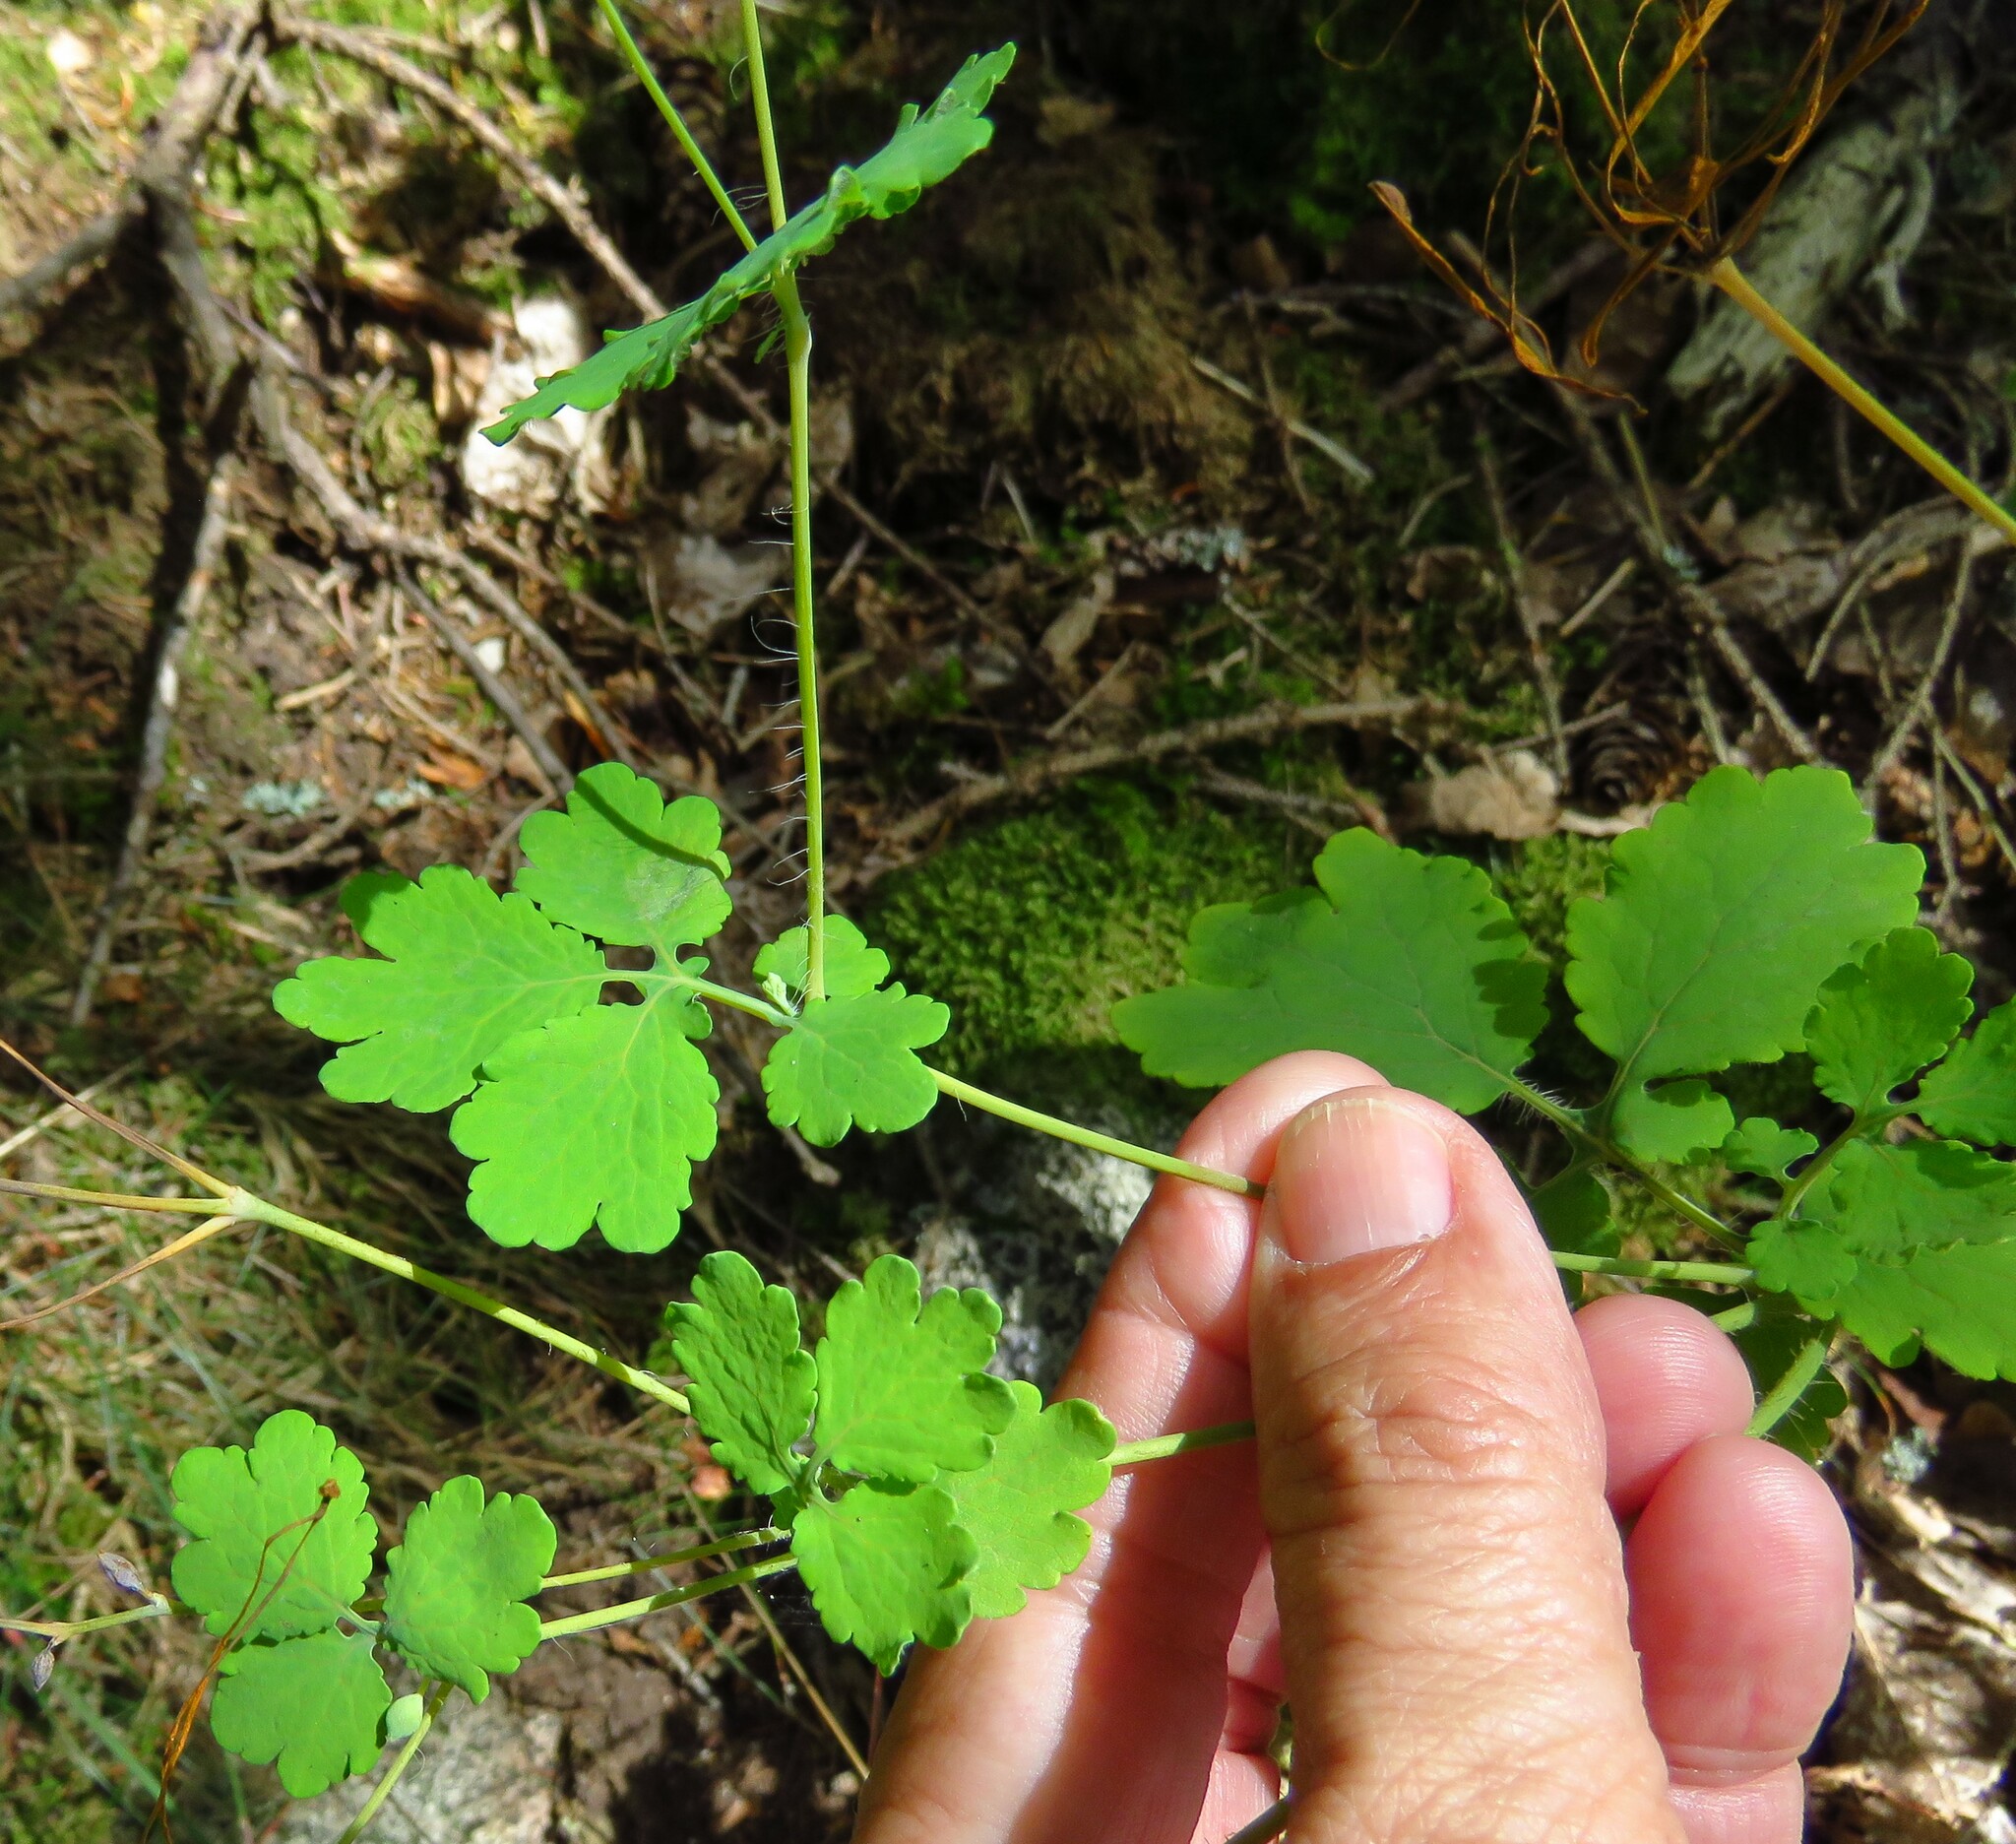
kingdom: Plantae
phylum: Tracheophyta
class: Magnoliopsida
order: Ranunculales
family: Papaveraceae
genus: Chelidonium
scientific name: Chelidonium majus
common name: Greater celandine
